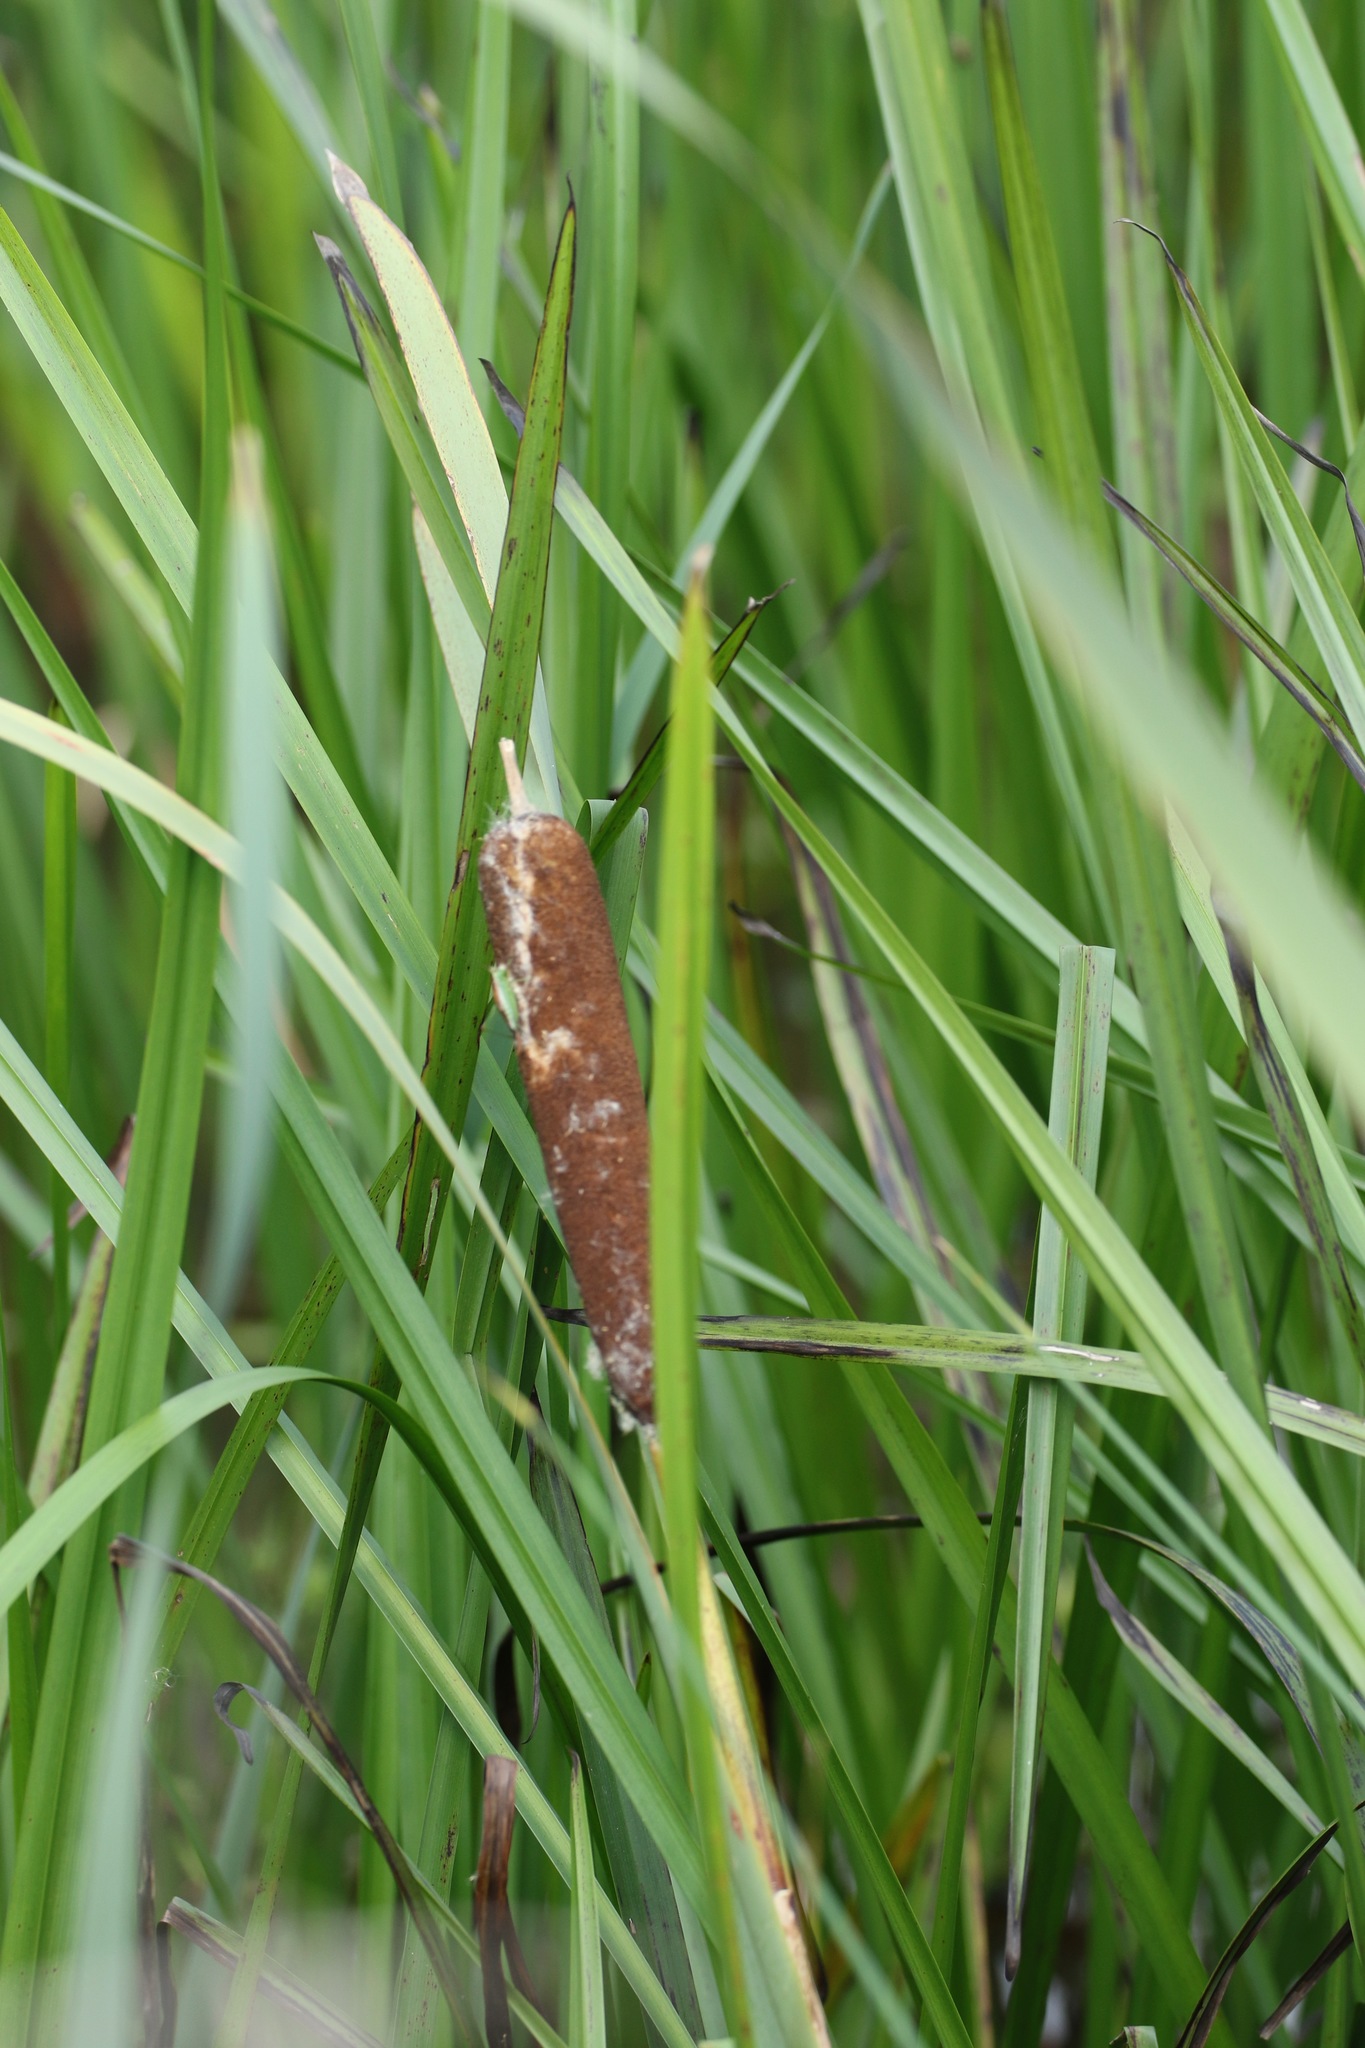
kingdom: Plantae
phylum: Tracheophyta
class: Liliopsida
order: Poales
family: Typhaceae
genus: Typha
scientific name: Typha latifolia
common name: Broadleaf cattail
